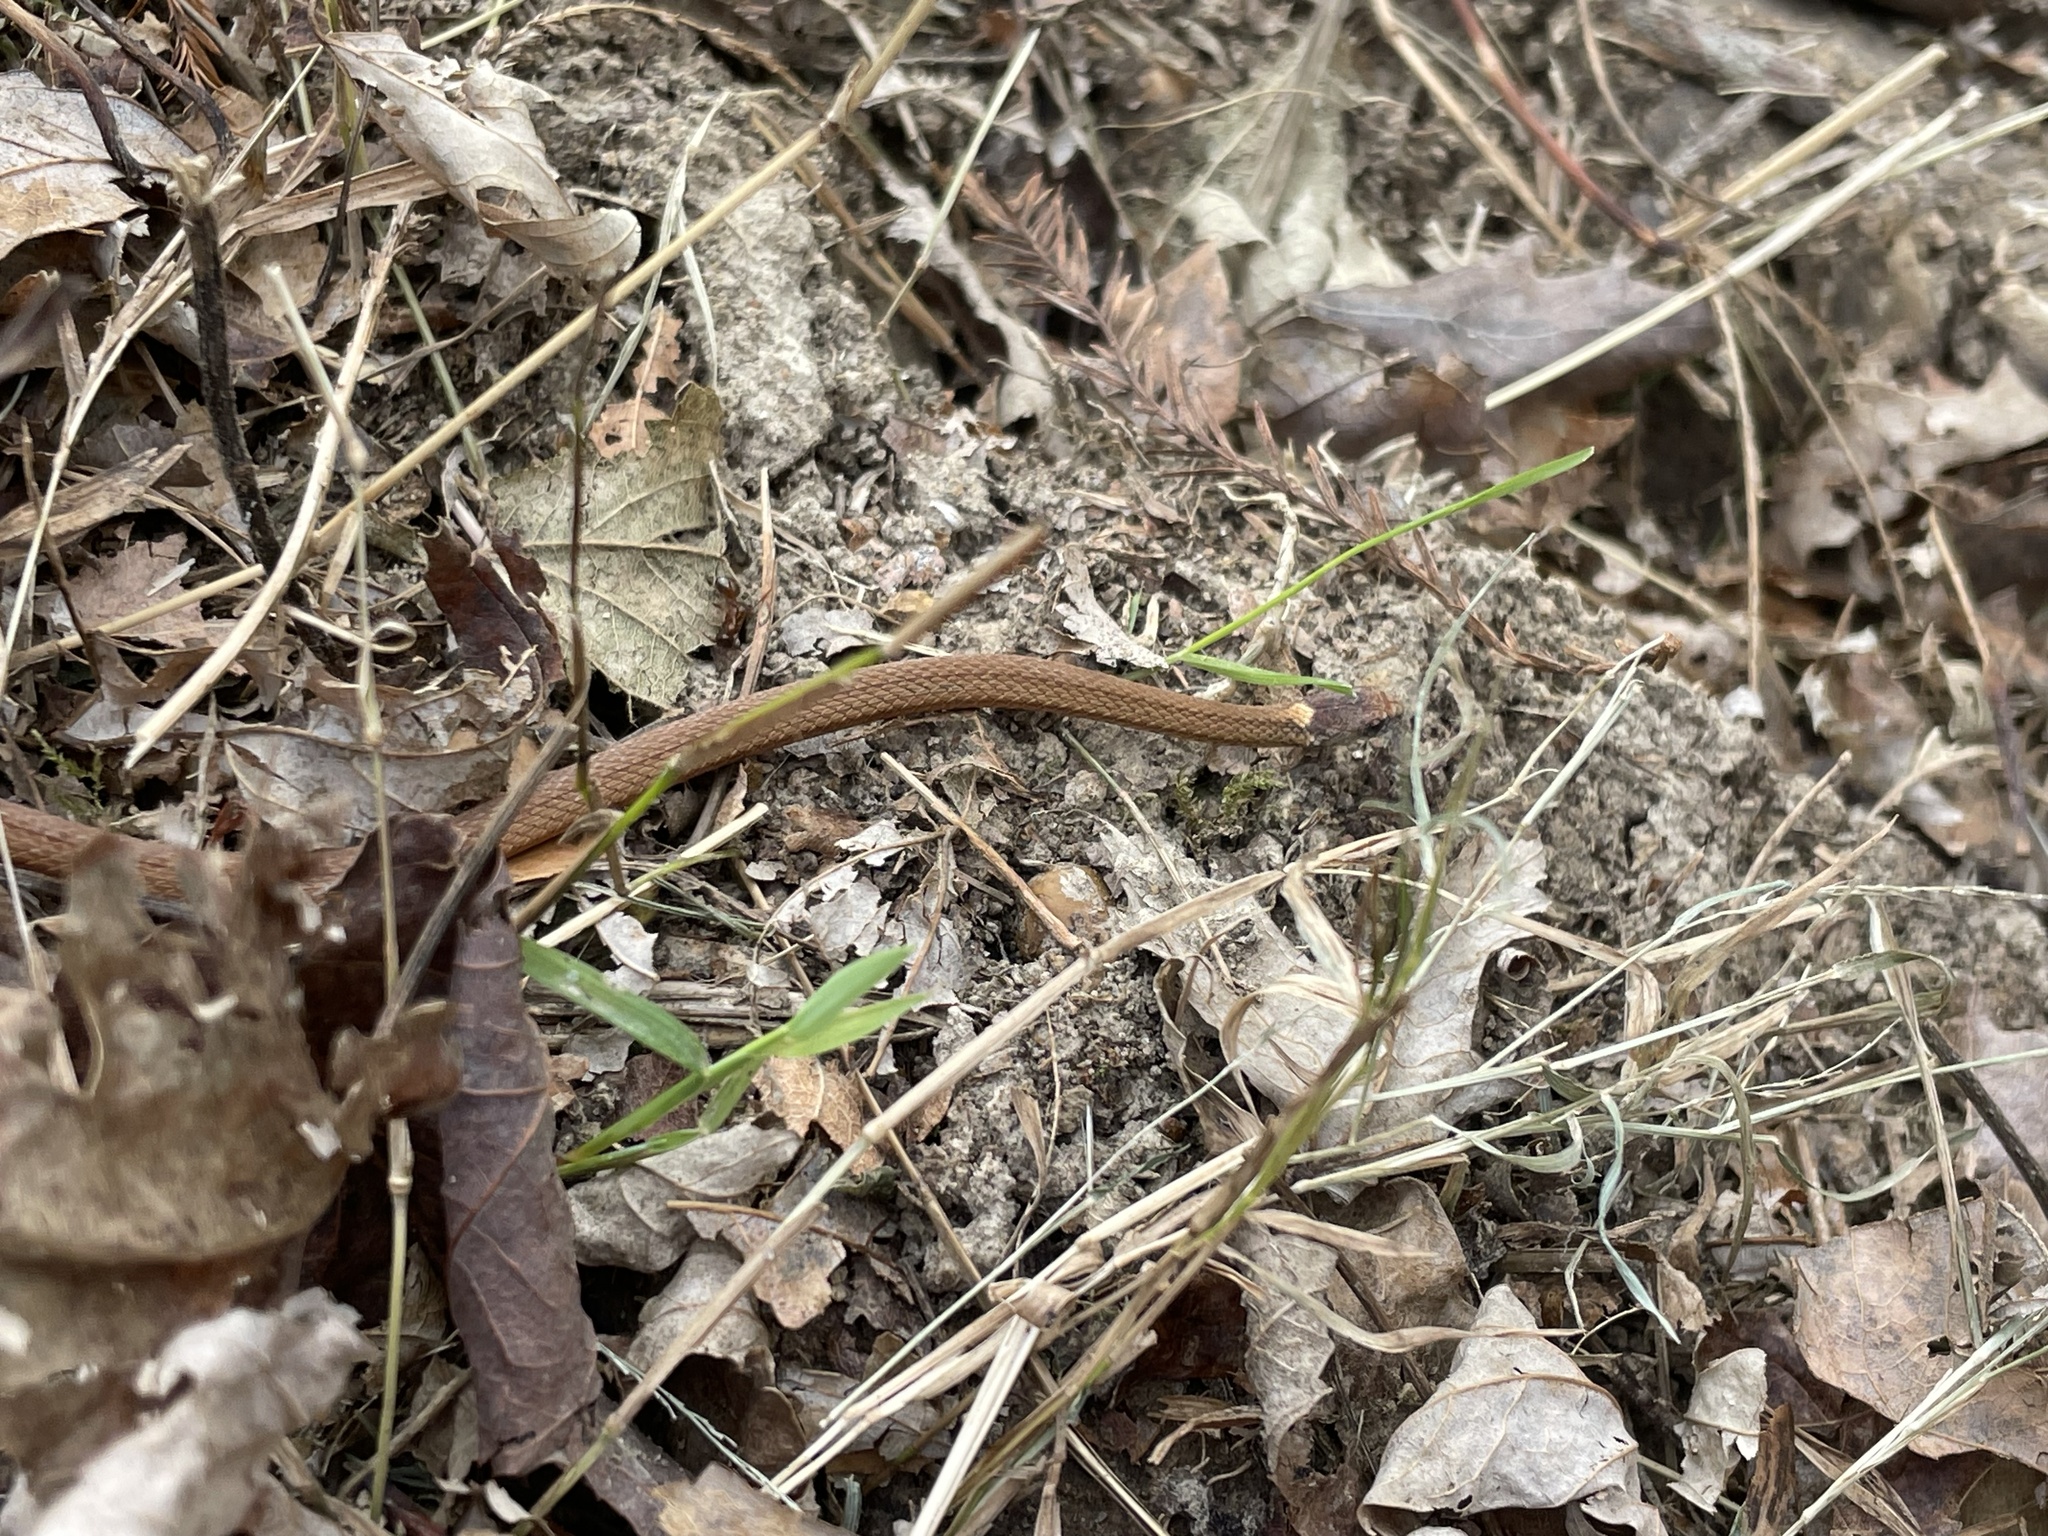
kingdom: Animalia
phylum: Chordata
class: Squamata
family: Colubridae
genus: Storeria
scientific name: Storeria occipitomaculata
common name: Redbelly snake
